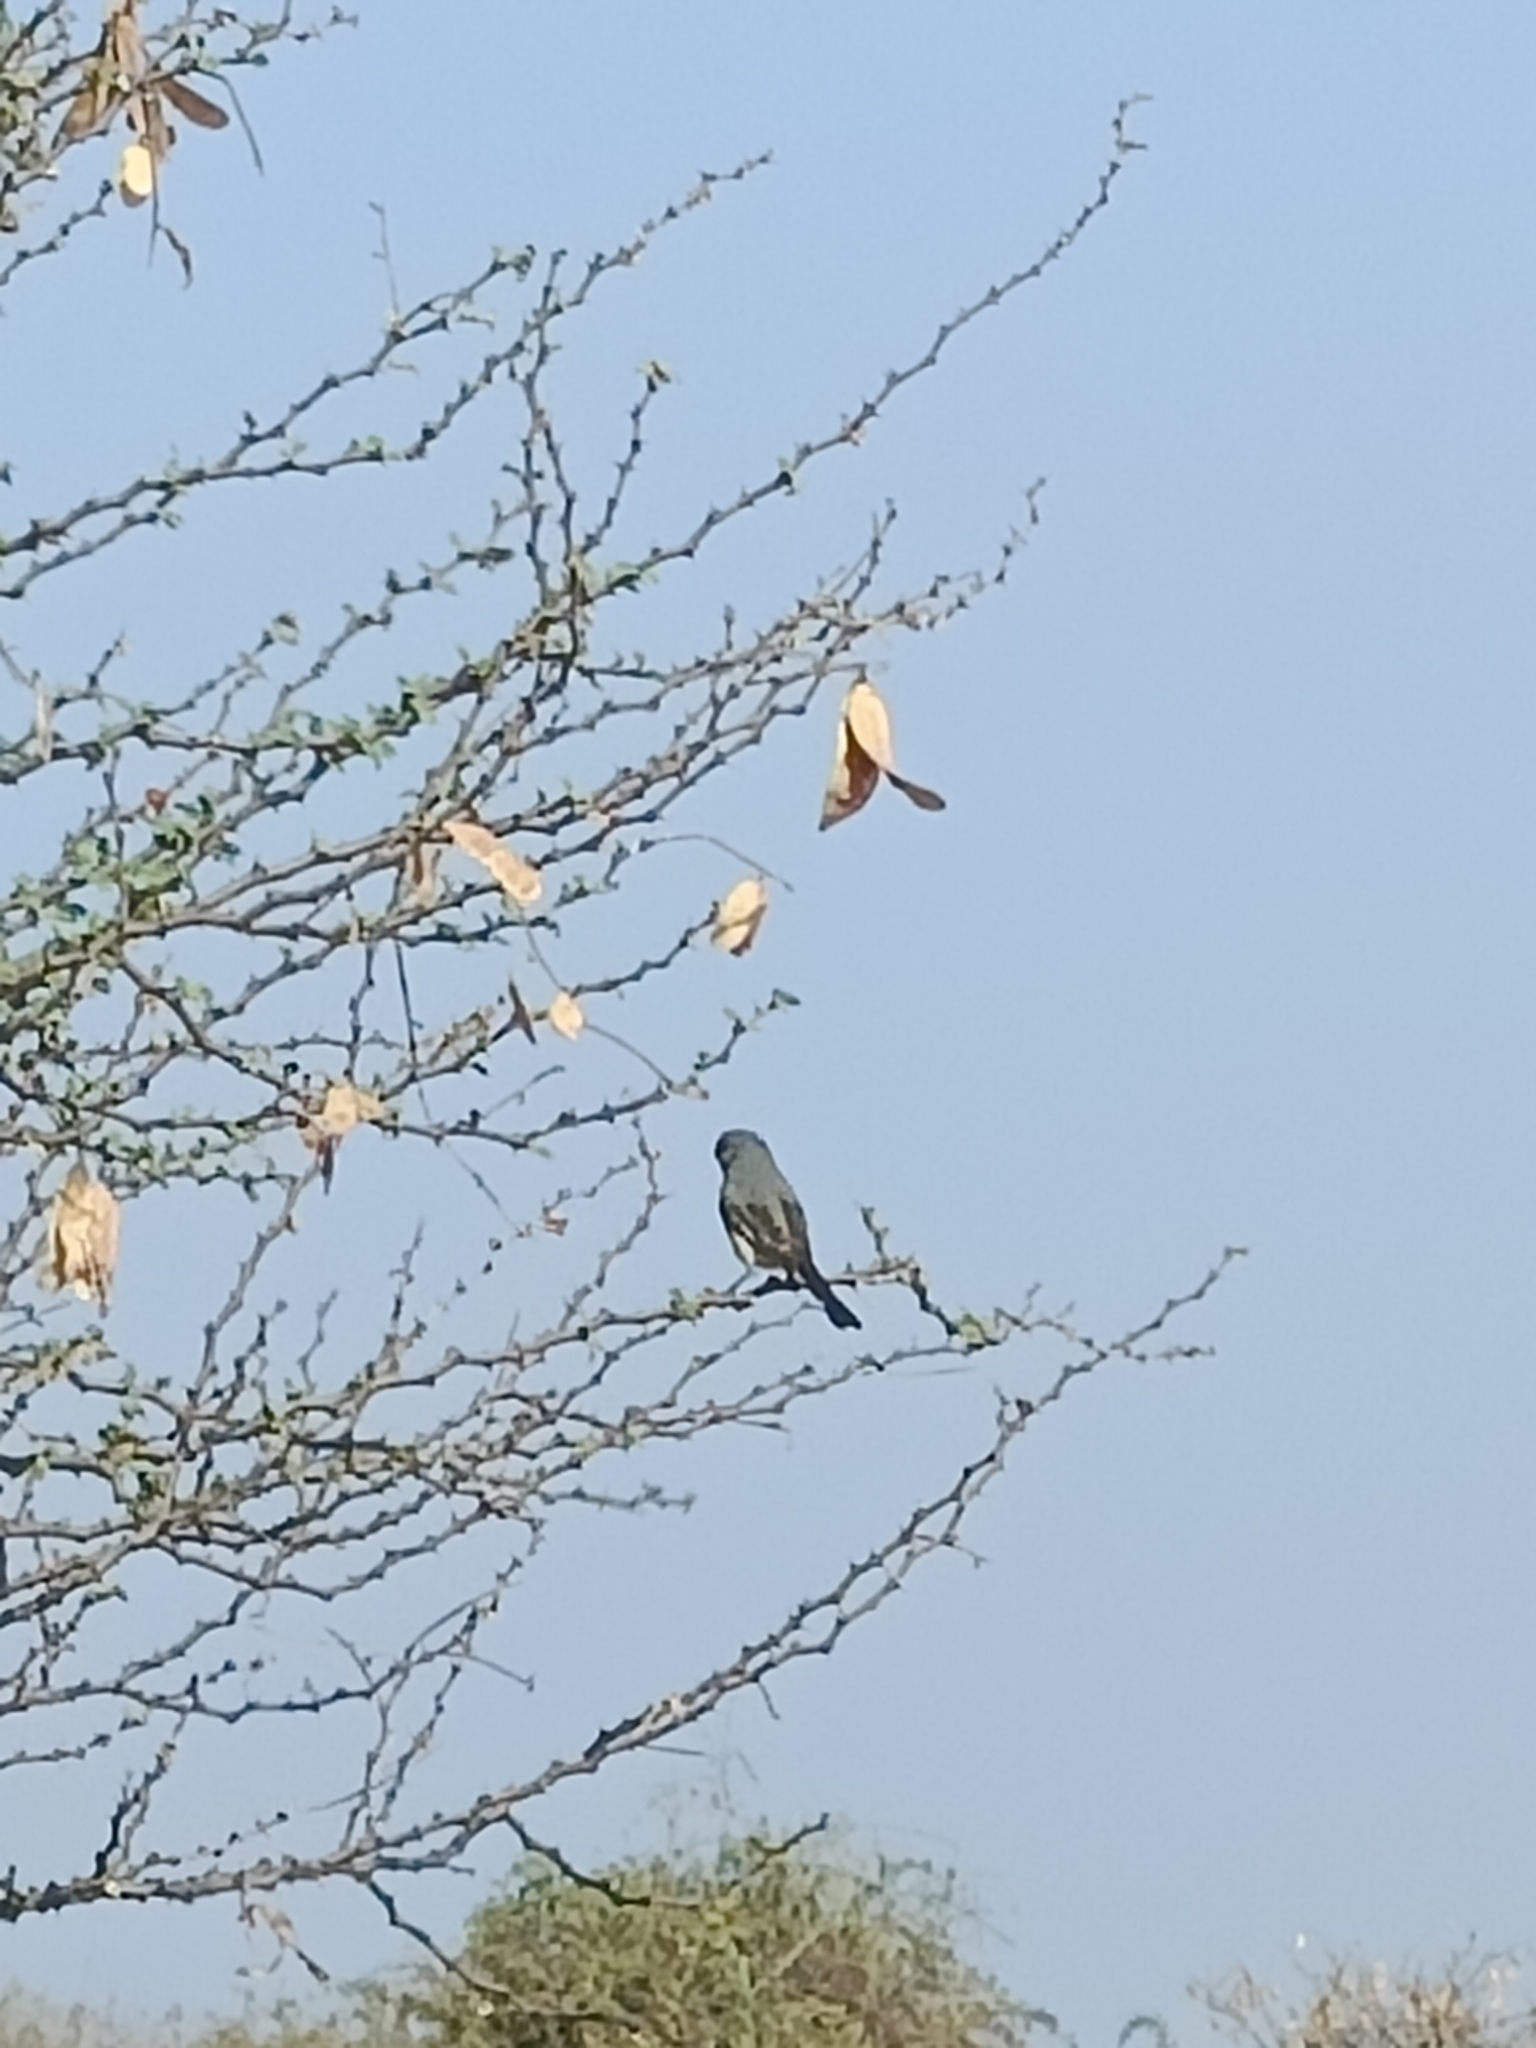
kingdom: Animalia
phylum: Chordata
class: Aves
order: Passeriformes
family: Campephagidae
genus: Pericrocotus
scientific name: Pericrocotus cinnamomeus
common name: Small minivet
